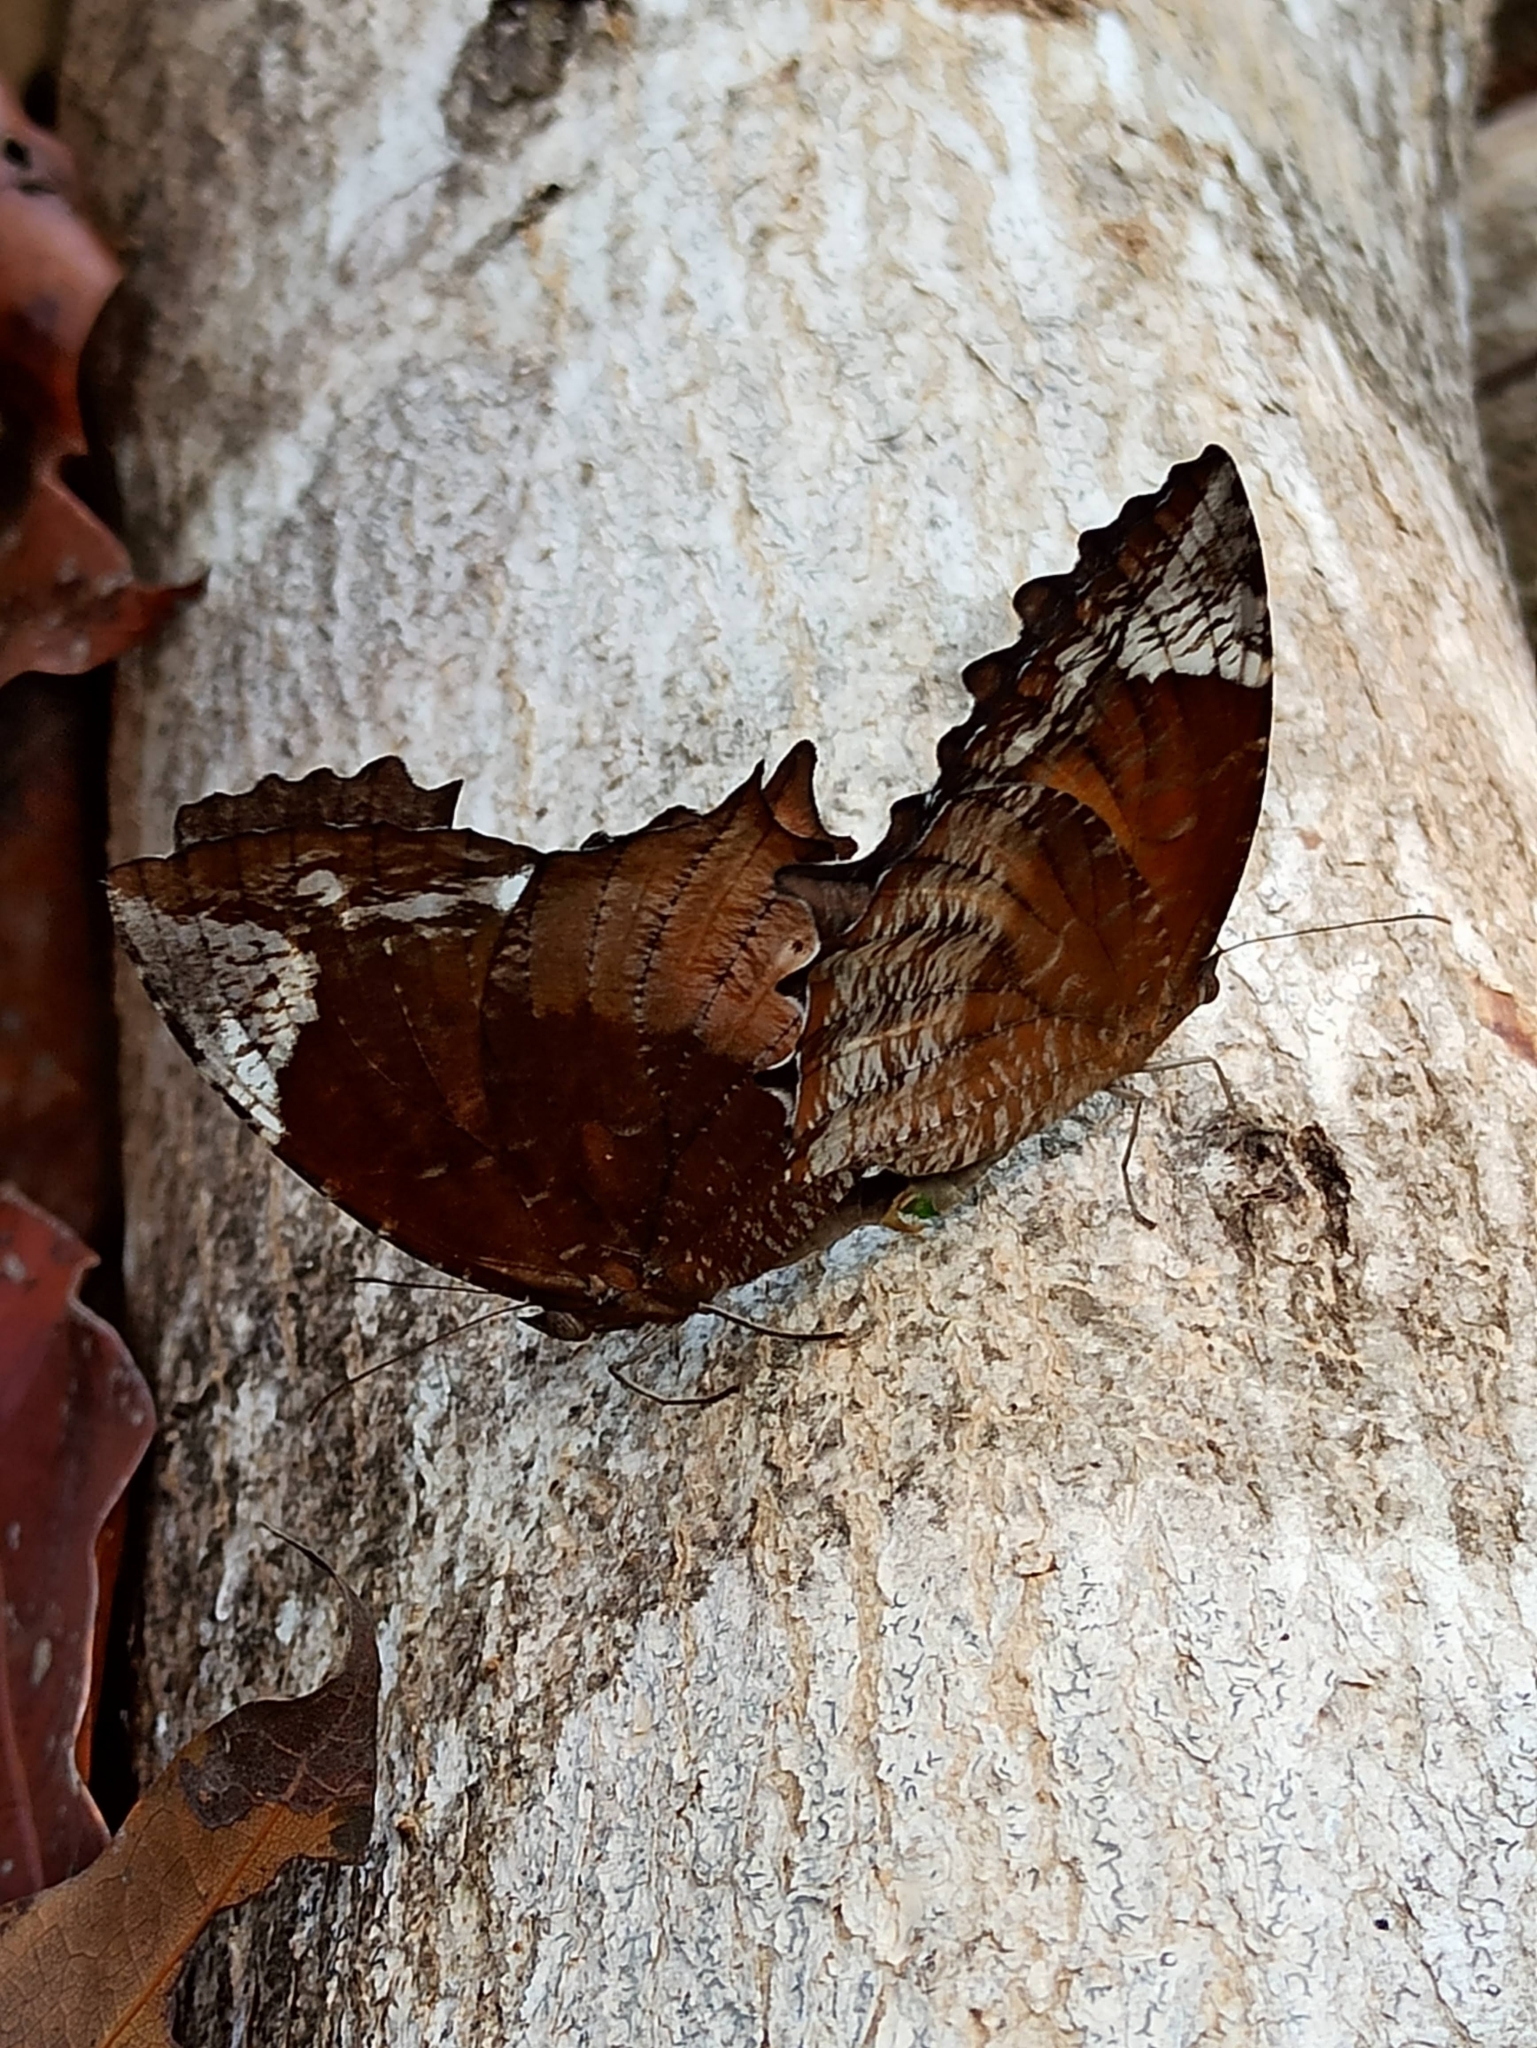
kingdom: Animalia
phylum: Arthropoda
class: Insecta
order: Lepidoptera
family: Nymphalidae
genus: Elymnias
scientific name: Elymnias caudata
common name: Tailed palmfly
